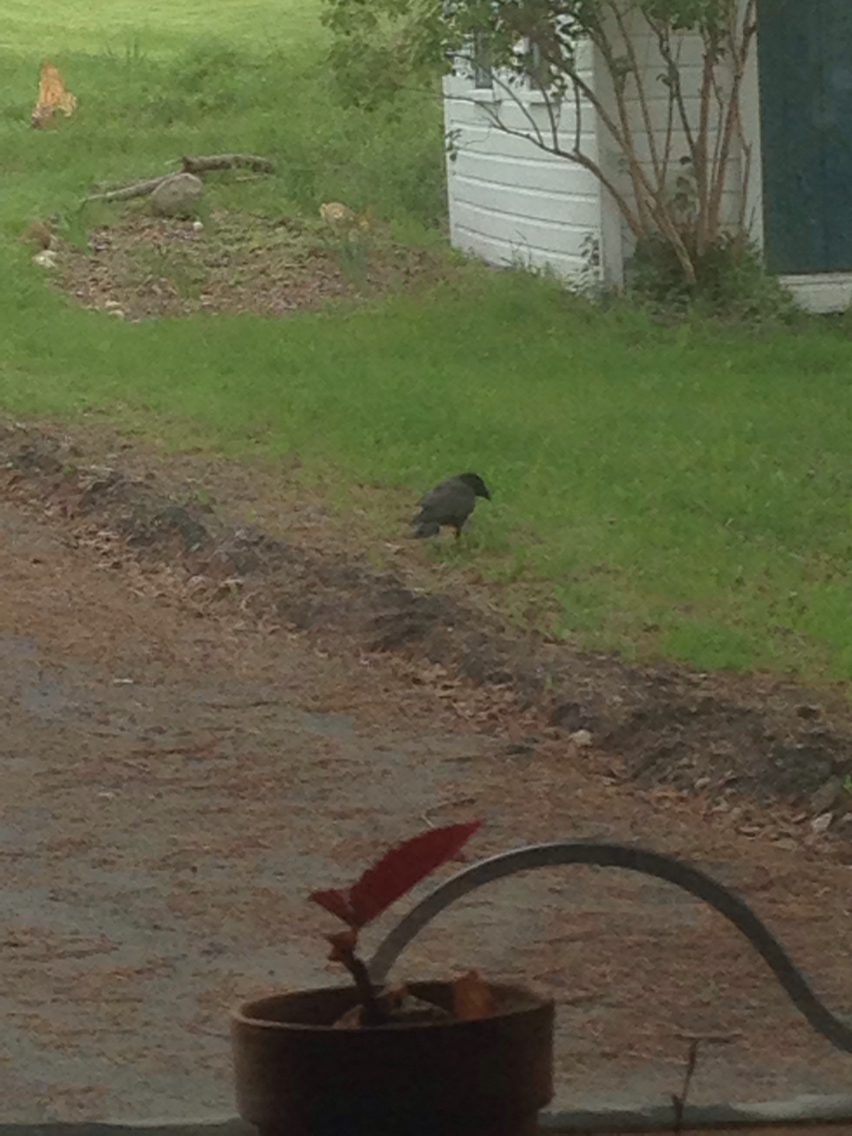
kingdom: Animalia
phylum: Chordata
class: Aves
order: Passeriformes
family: Corvidae
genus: Corvus
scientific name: Corvus brachyrhynchos
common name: American crow
